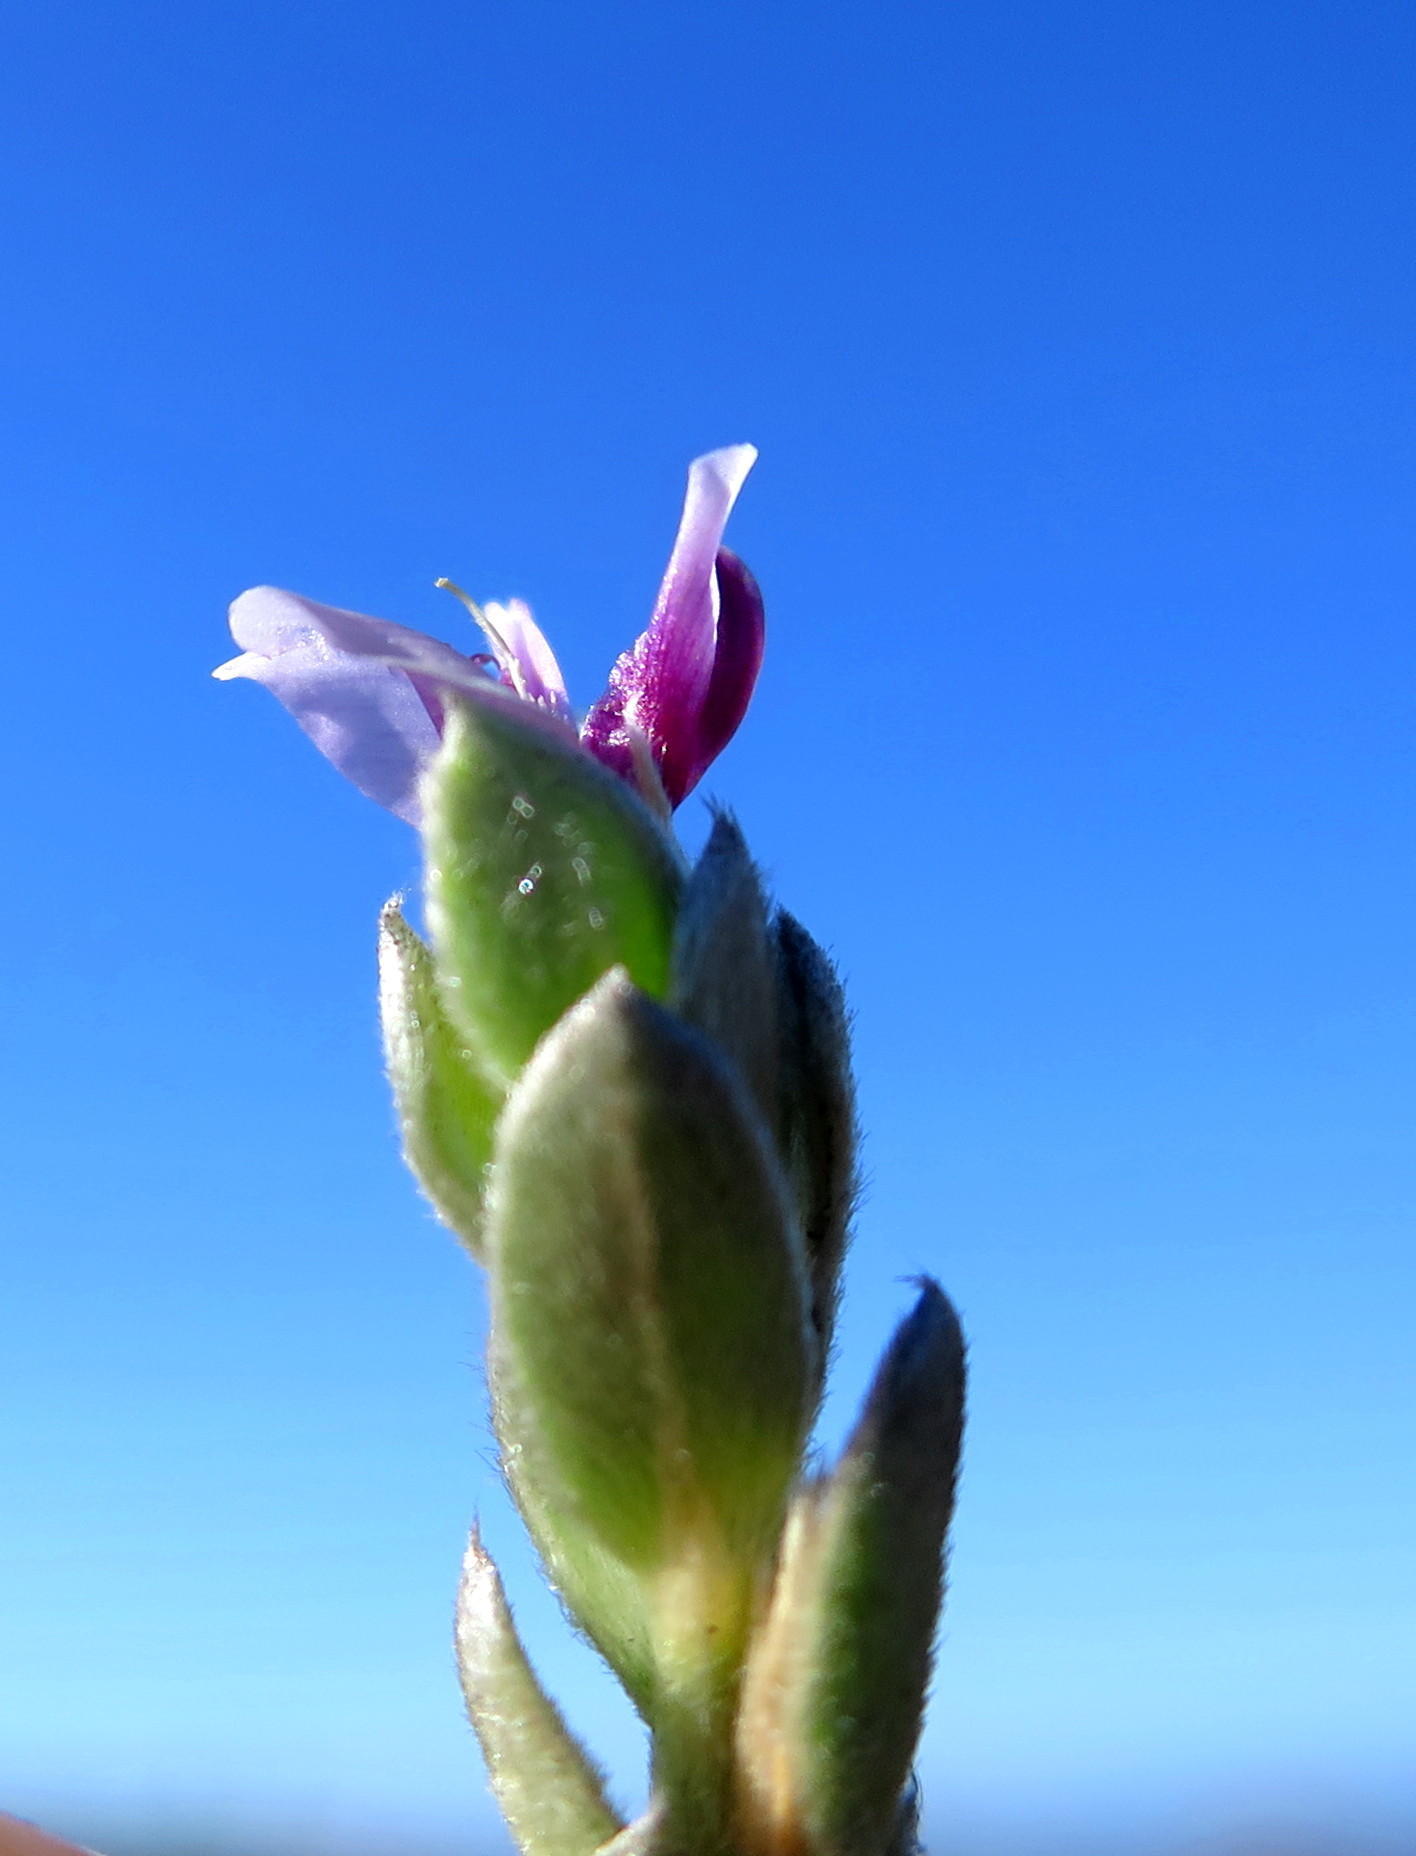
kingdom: Plantae
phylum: Tracheophyta
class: Magnoliopsida
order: Fabales
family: Fabaceae
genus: Amphithalea
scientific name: Amphithalea fourcadei
